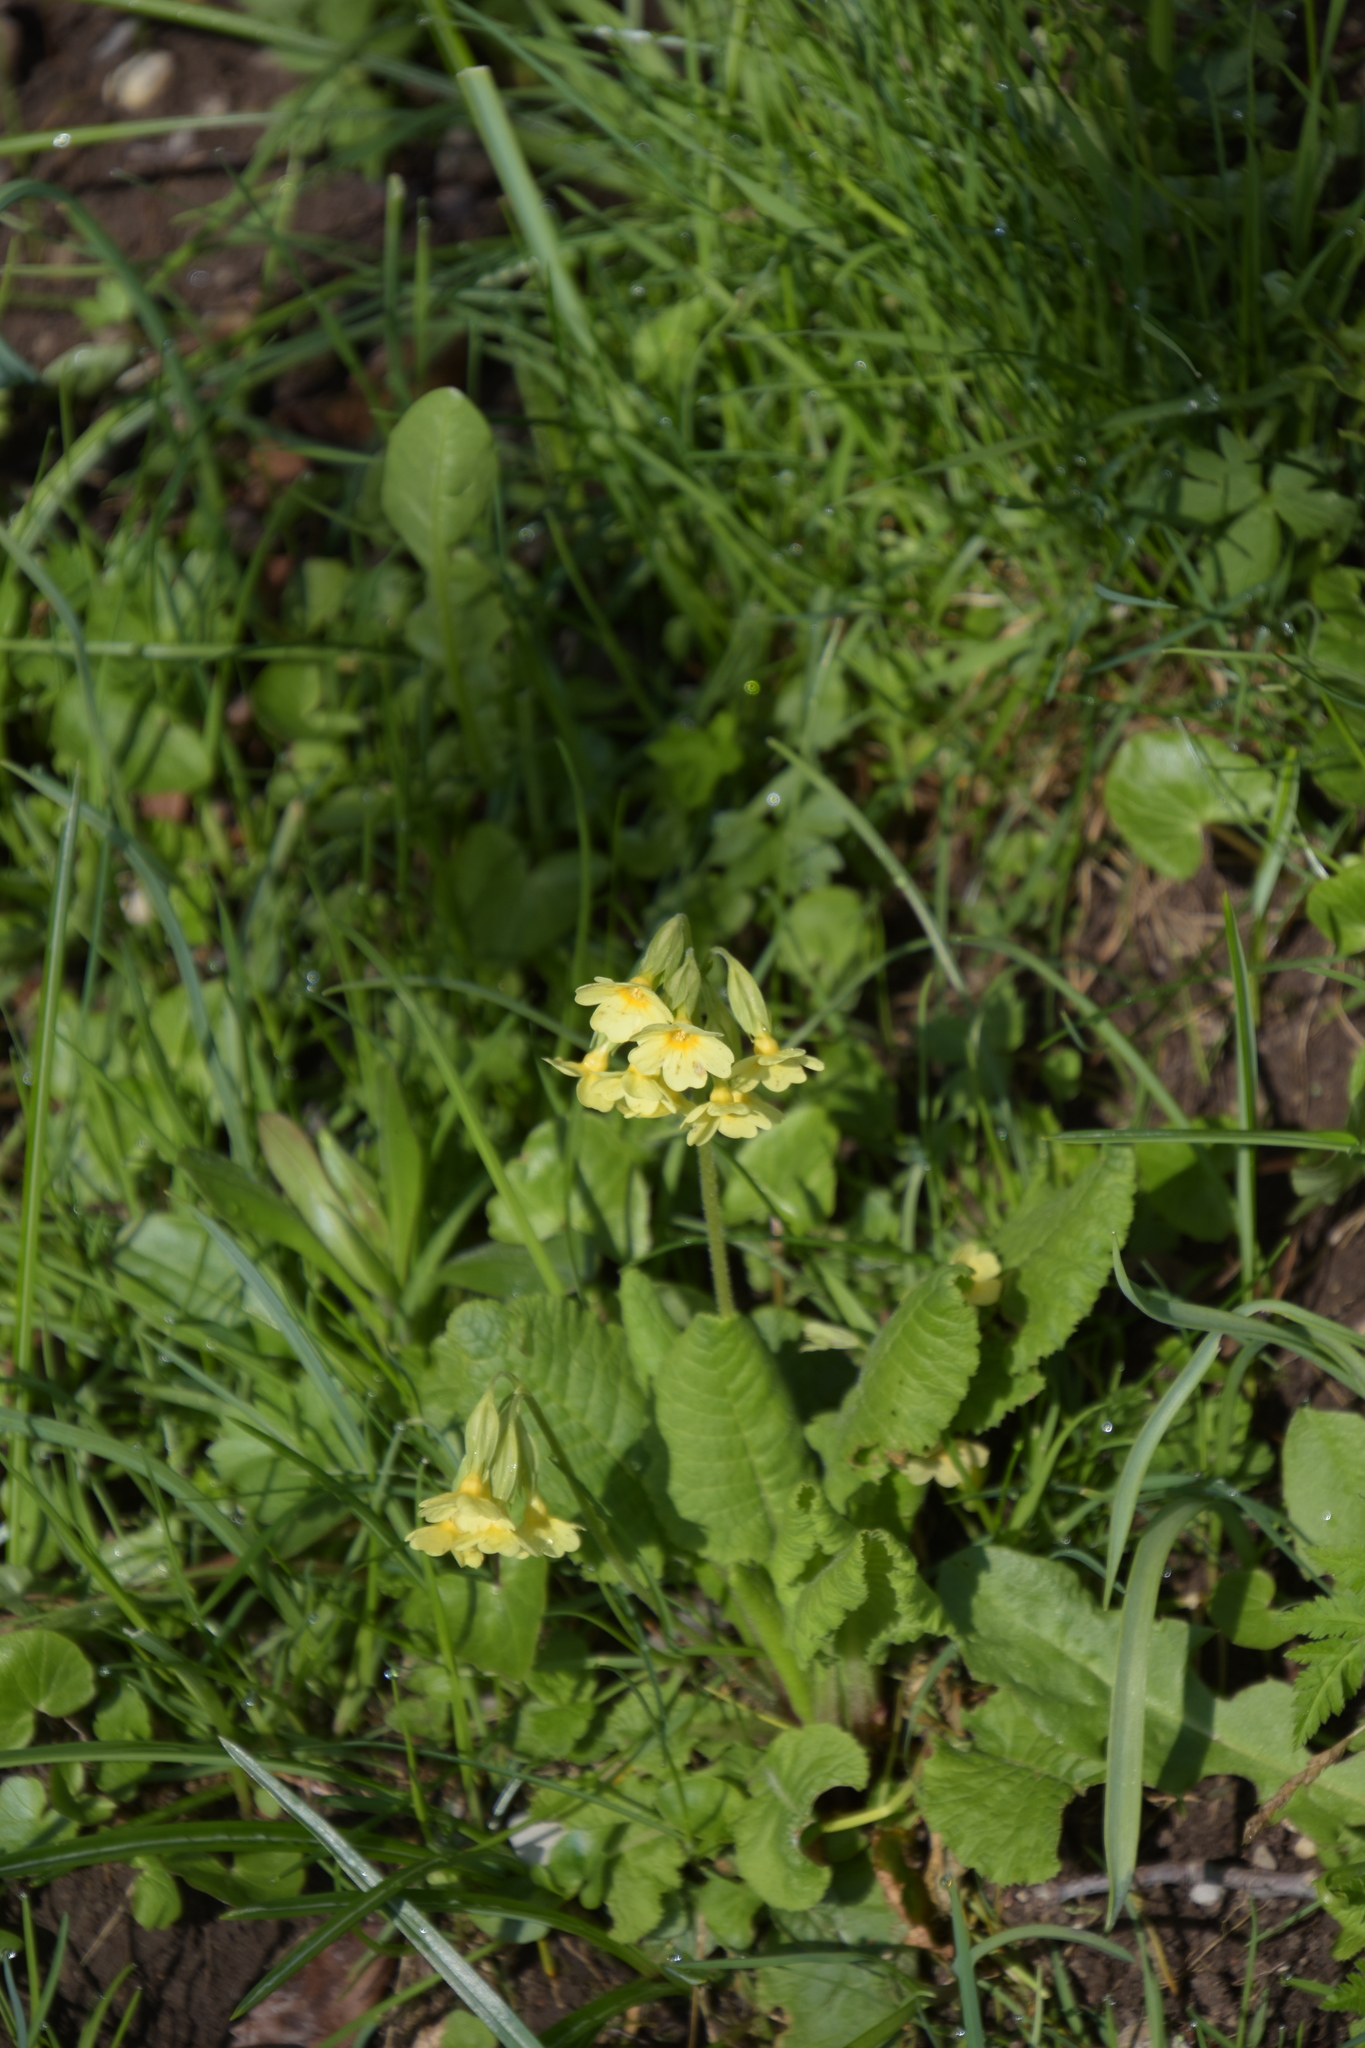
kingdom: Plantae
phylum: Tracheophyta
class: Magnoliopsida
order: Ericales
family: Primulaceae
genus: Primula
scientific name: Primula elatior
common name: Oxlip
